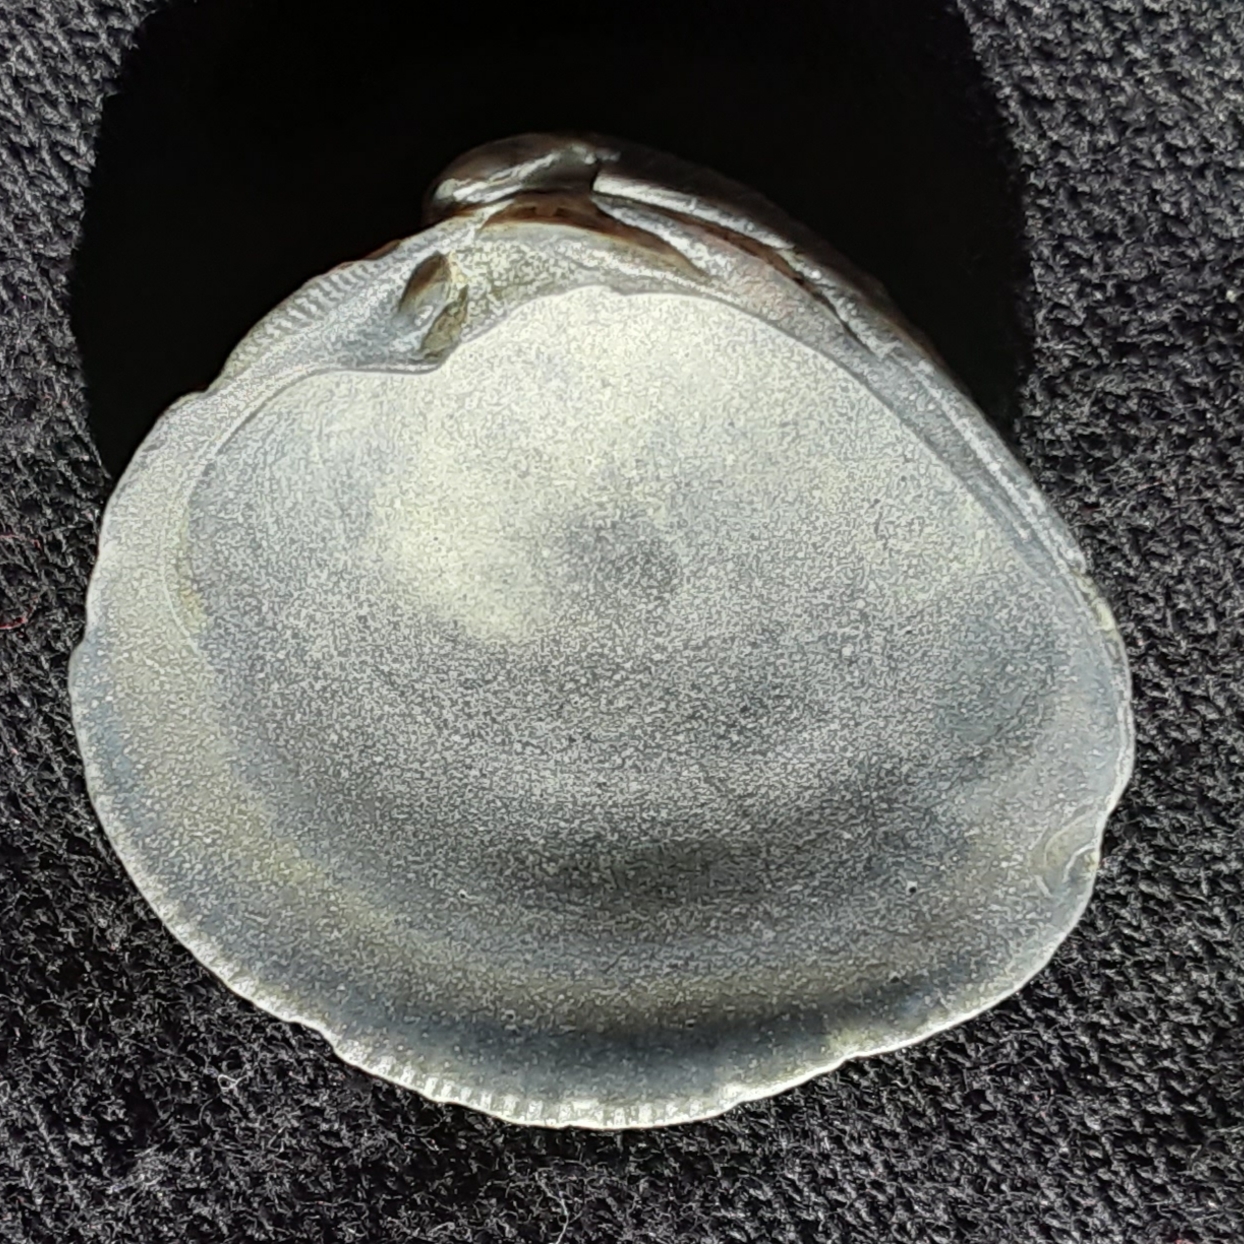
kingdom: Animalia
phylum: Mollusca
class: Bivalvia
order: Venerida
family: Veneridae
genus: Chionopsis
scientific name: Chionopsis intapurpurea
